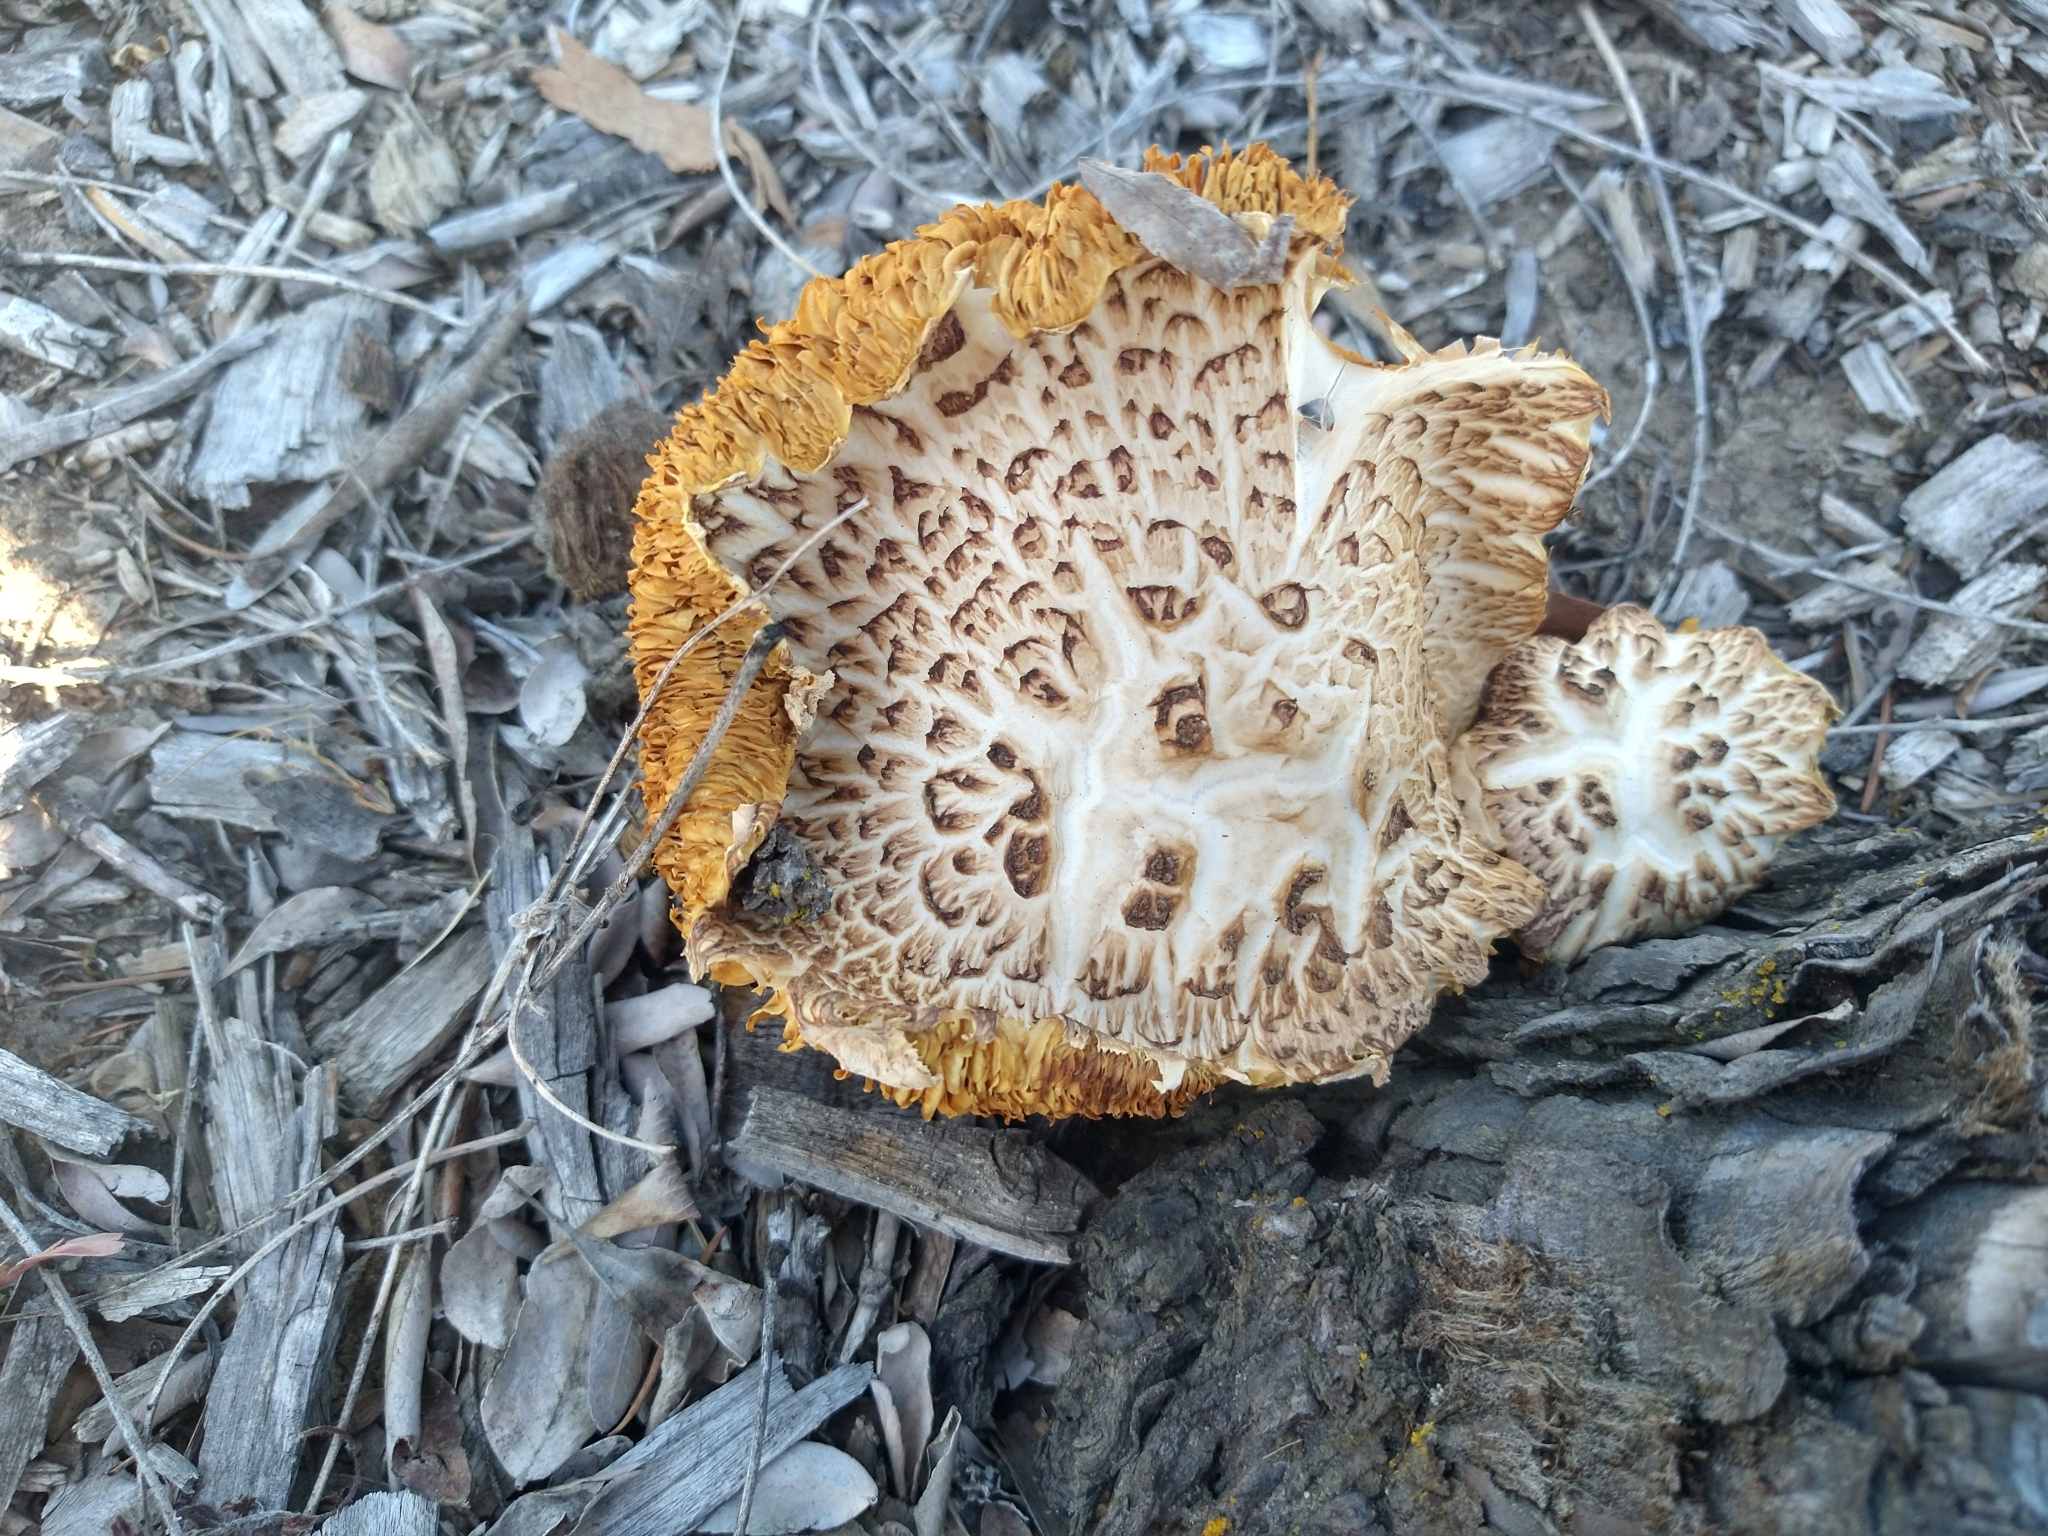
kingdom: Fungi
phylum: Basidiomycota
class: Agaricomycetes
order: Agaricales
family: Hymenogastraceae
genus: Gymnopilus
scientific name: Gymnopilus luteofolius
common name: Yellow-gilled gymnopilus
